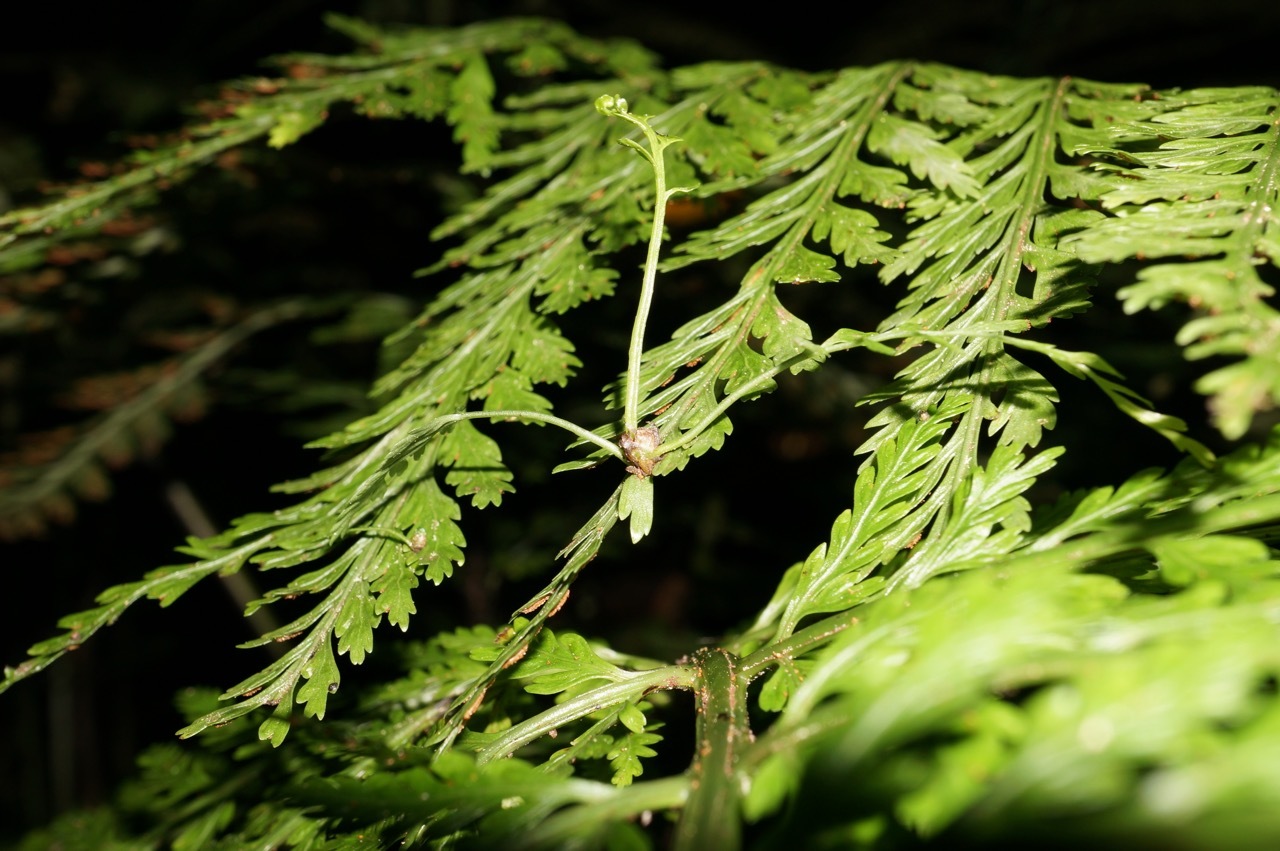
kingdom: Plantae
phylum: Tracheophyta
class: Polypodiopsida
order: Polypodiales
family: Aspleniaceae
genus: Asplenium
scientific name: Asplenium bulbiferum
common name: Mother fern
